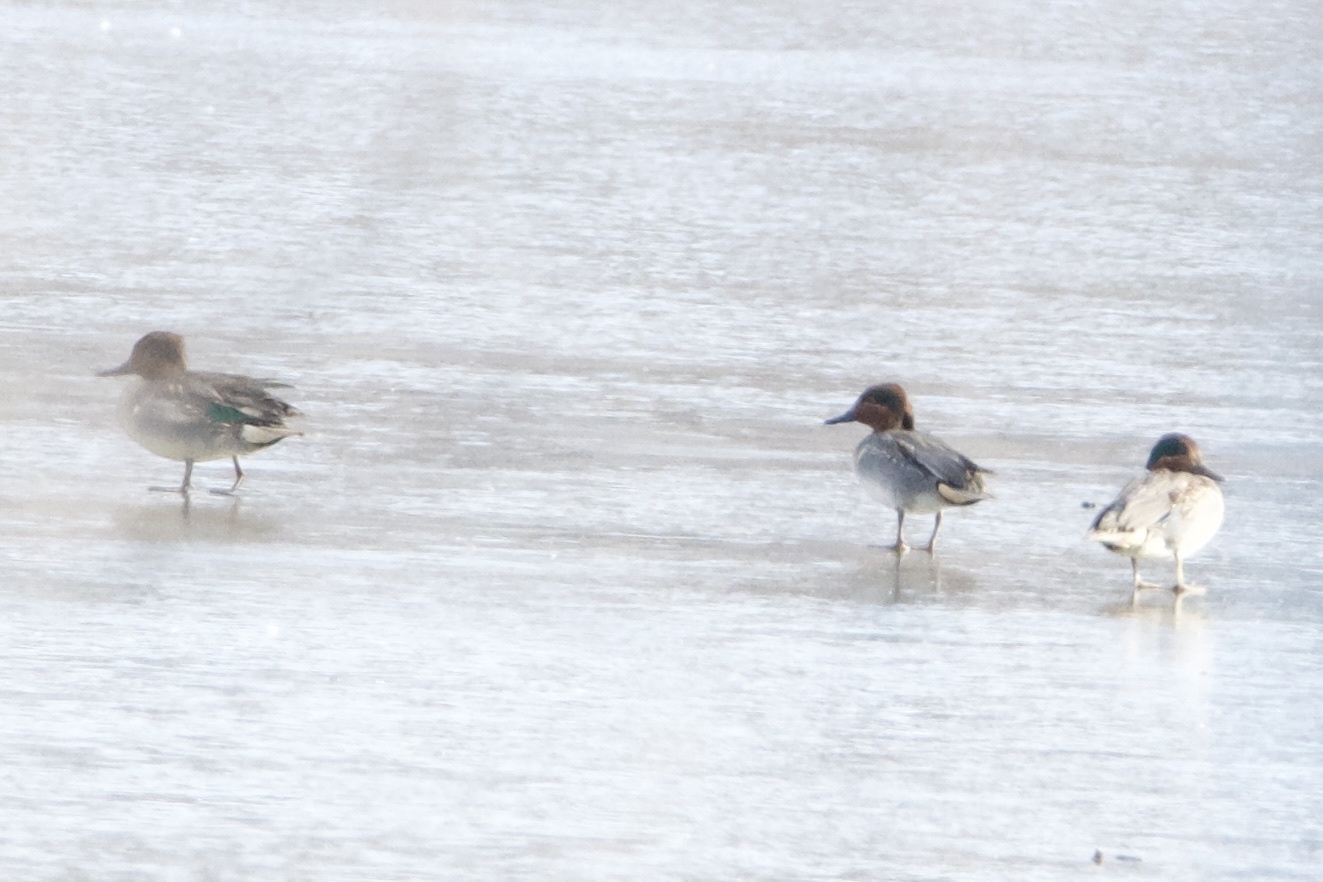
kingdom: Animalia
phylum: Chordata
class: Aves
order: Anseriformes
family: Anatidae
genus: Anas
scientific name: Anas carolinensis
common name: Green-winged teal
